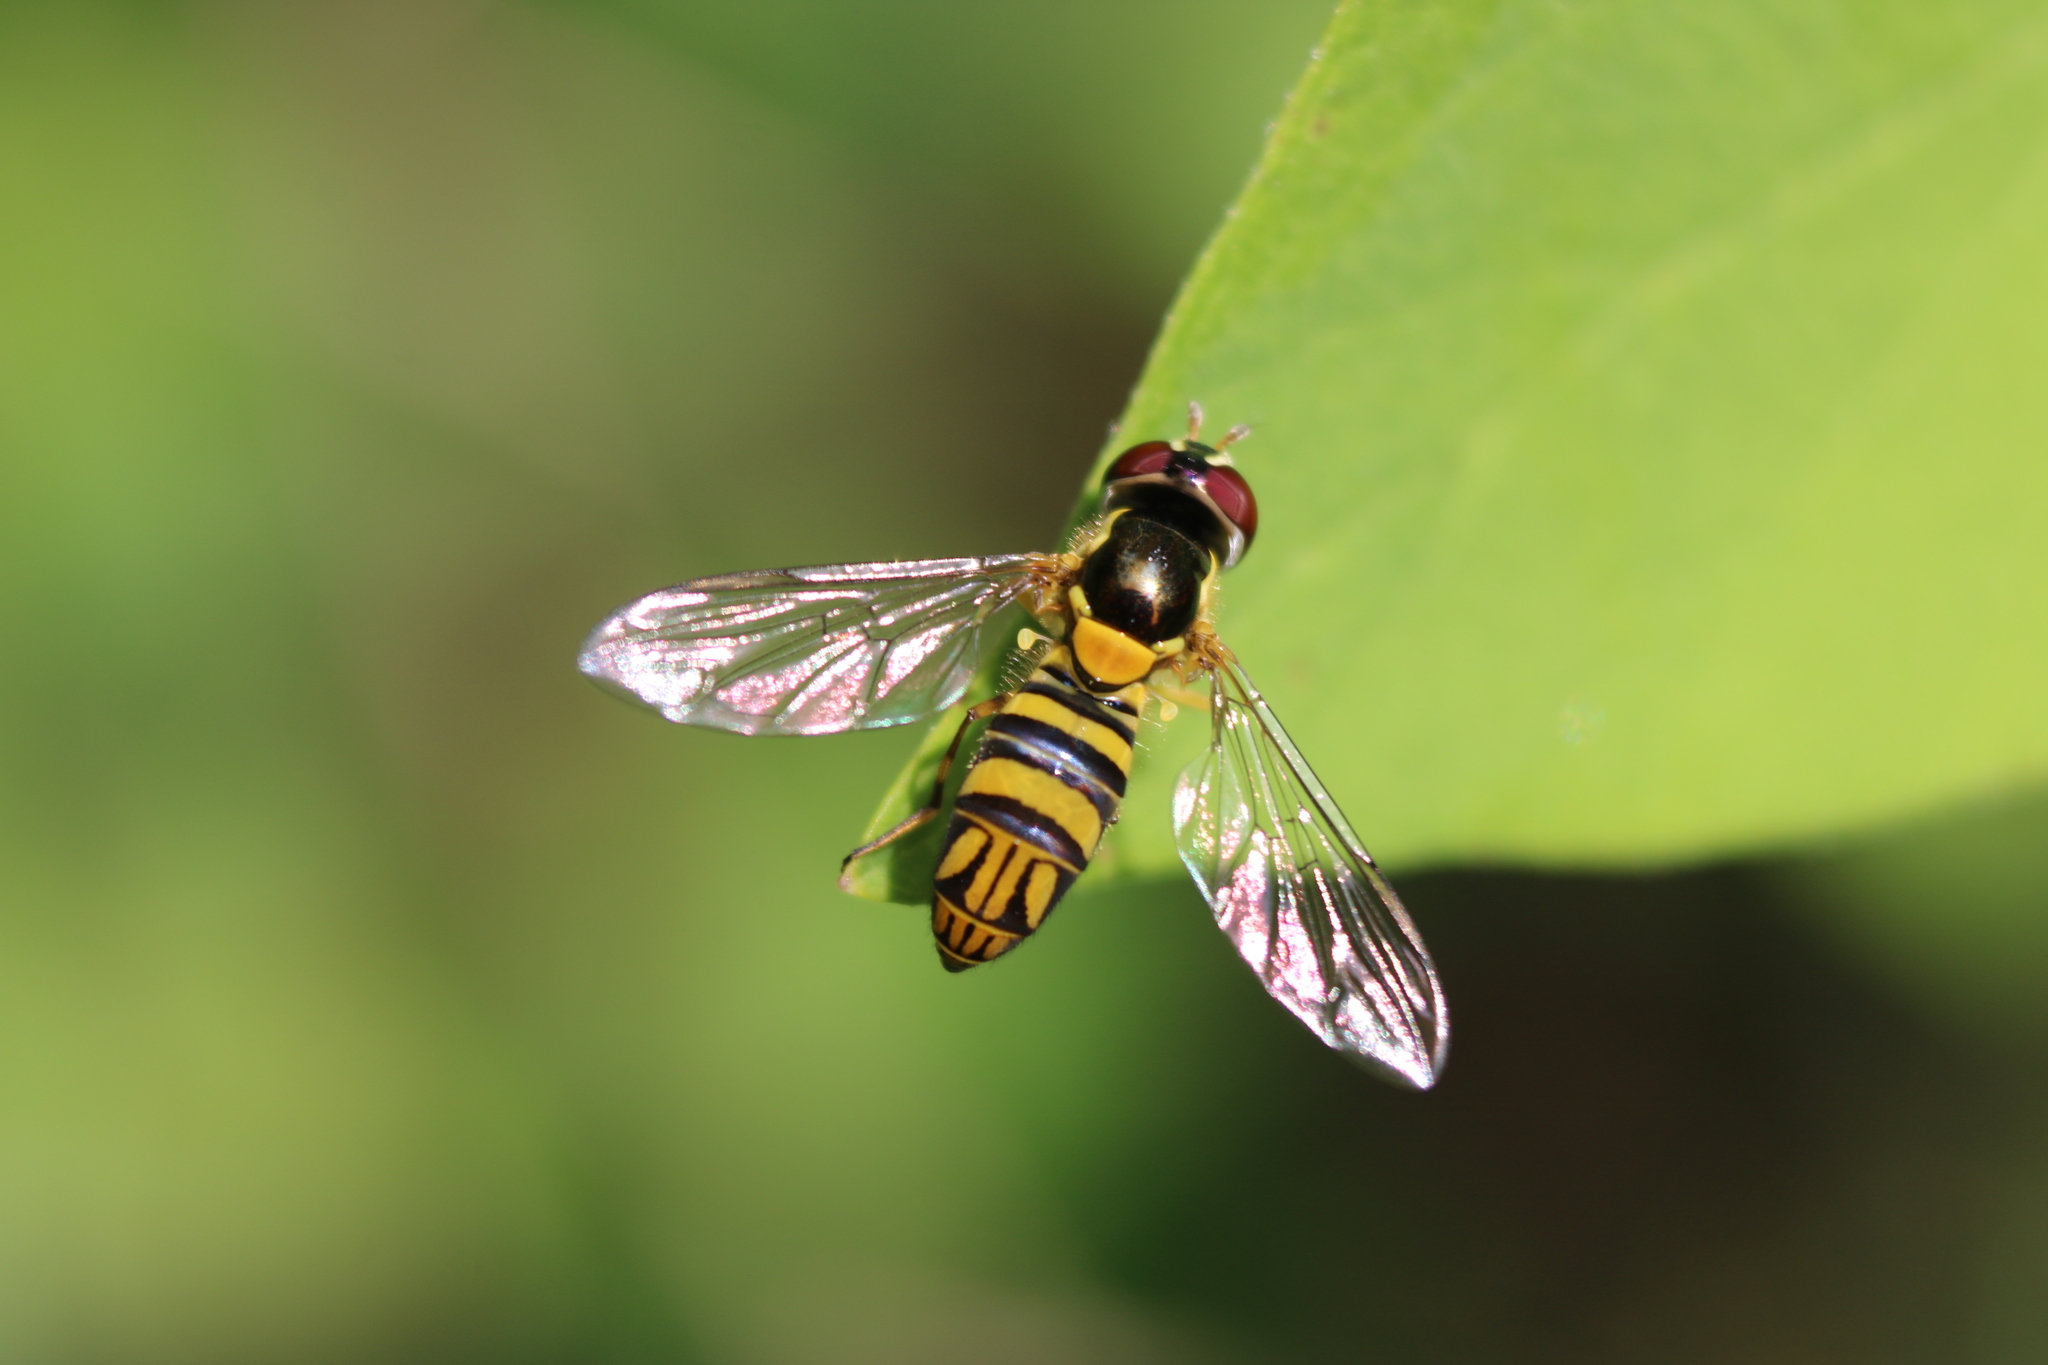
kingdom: Animalia
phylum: Arthropoda
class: Insecta
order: Diptera
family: Syrphidae
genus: Allograpta
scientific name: Allograpta obliqua
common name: Common oblique syrphid
